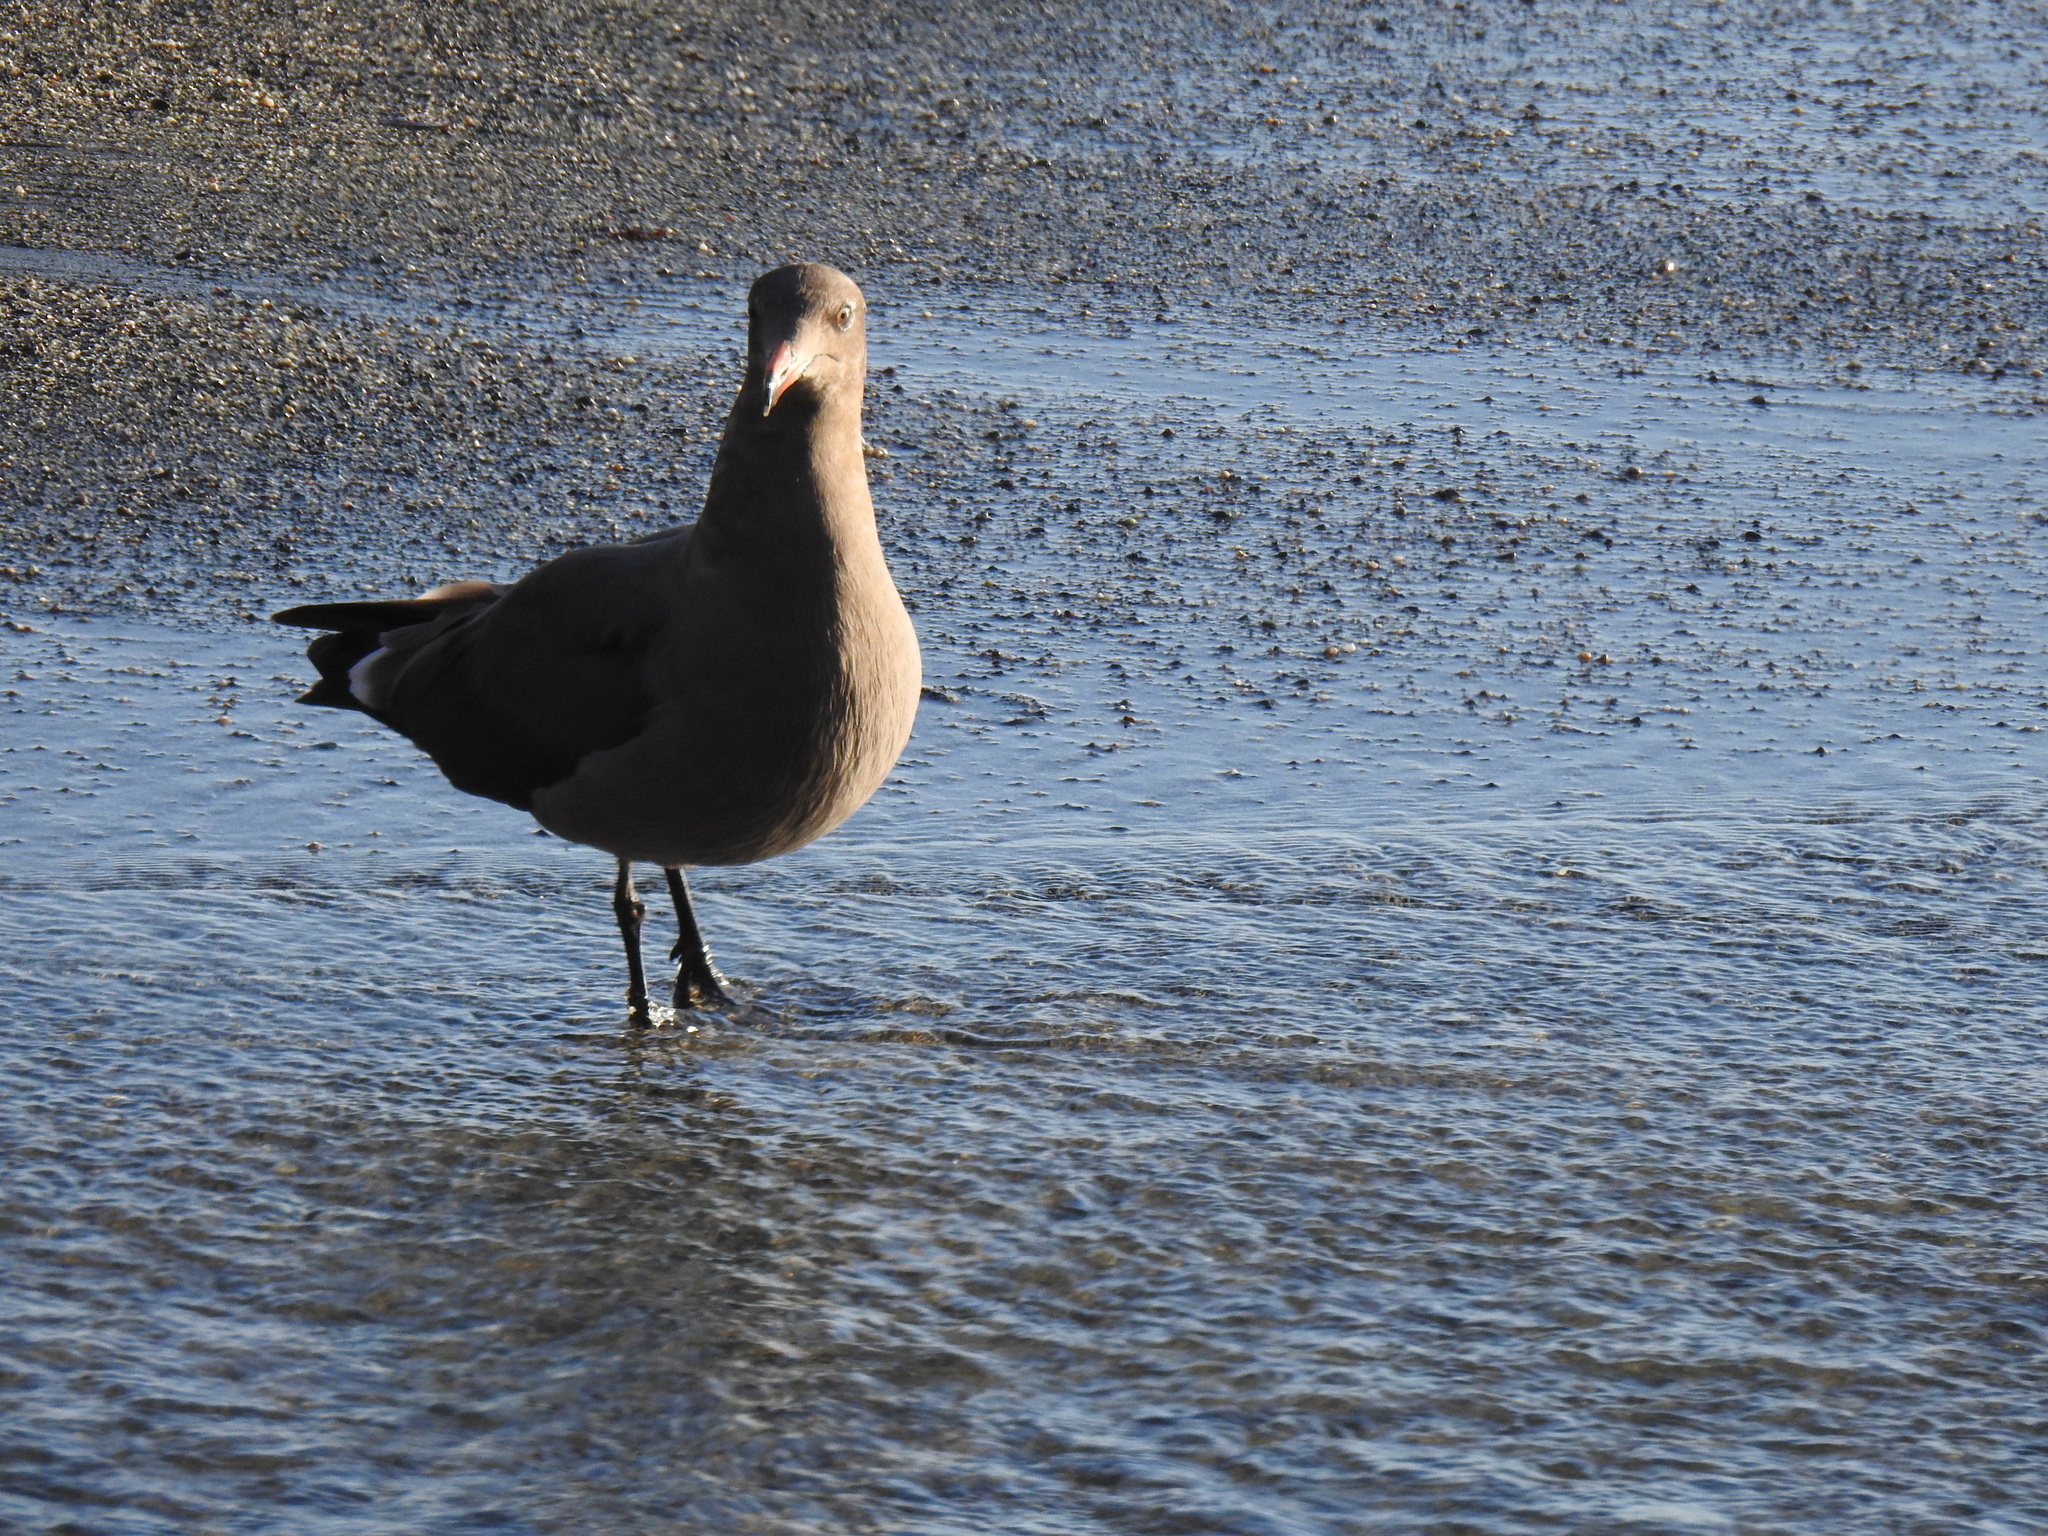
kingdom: Animalia
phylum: Chordata
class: Aves
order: Charadriiformes
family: Laridae
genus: Larus
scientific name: Larus heermanni
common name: Heermann's gull
